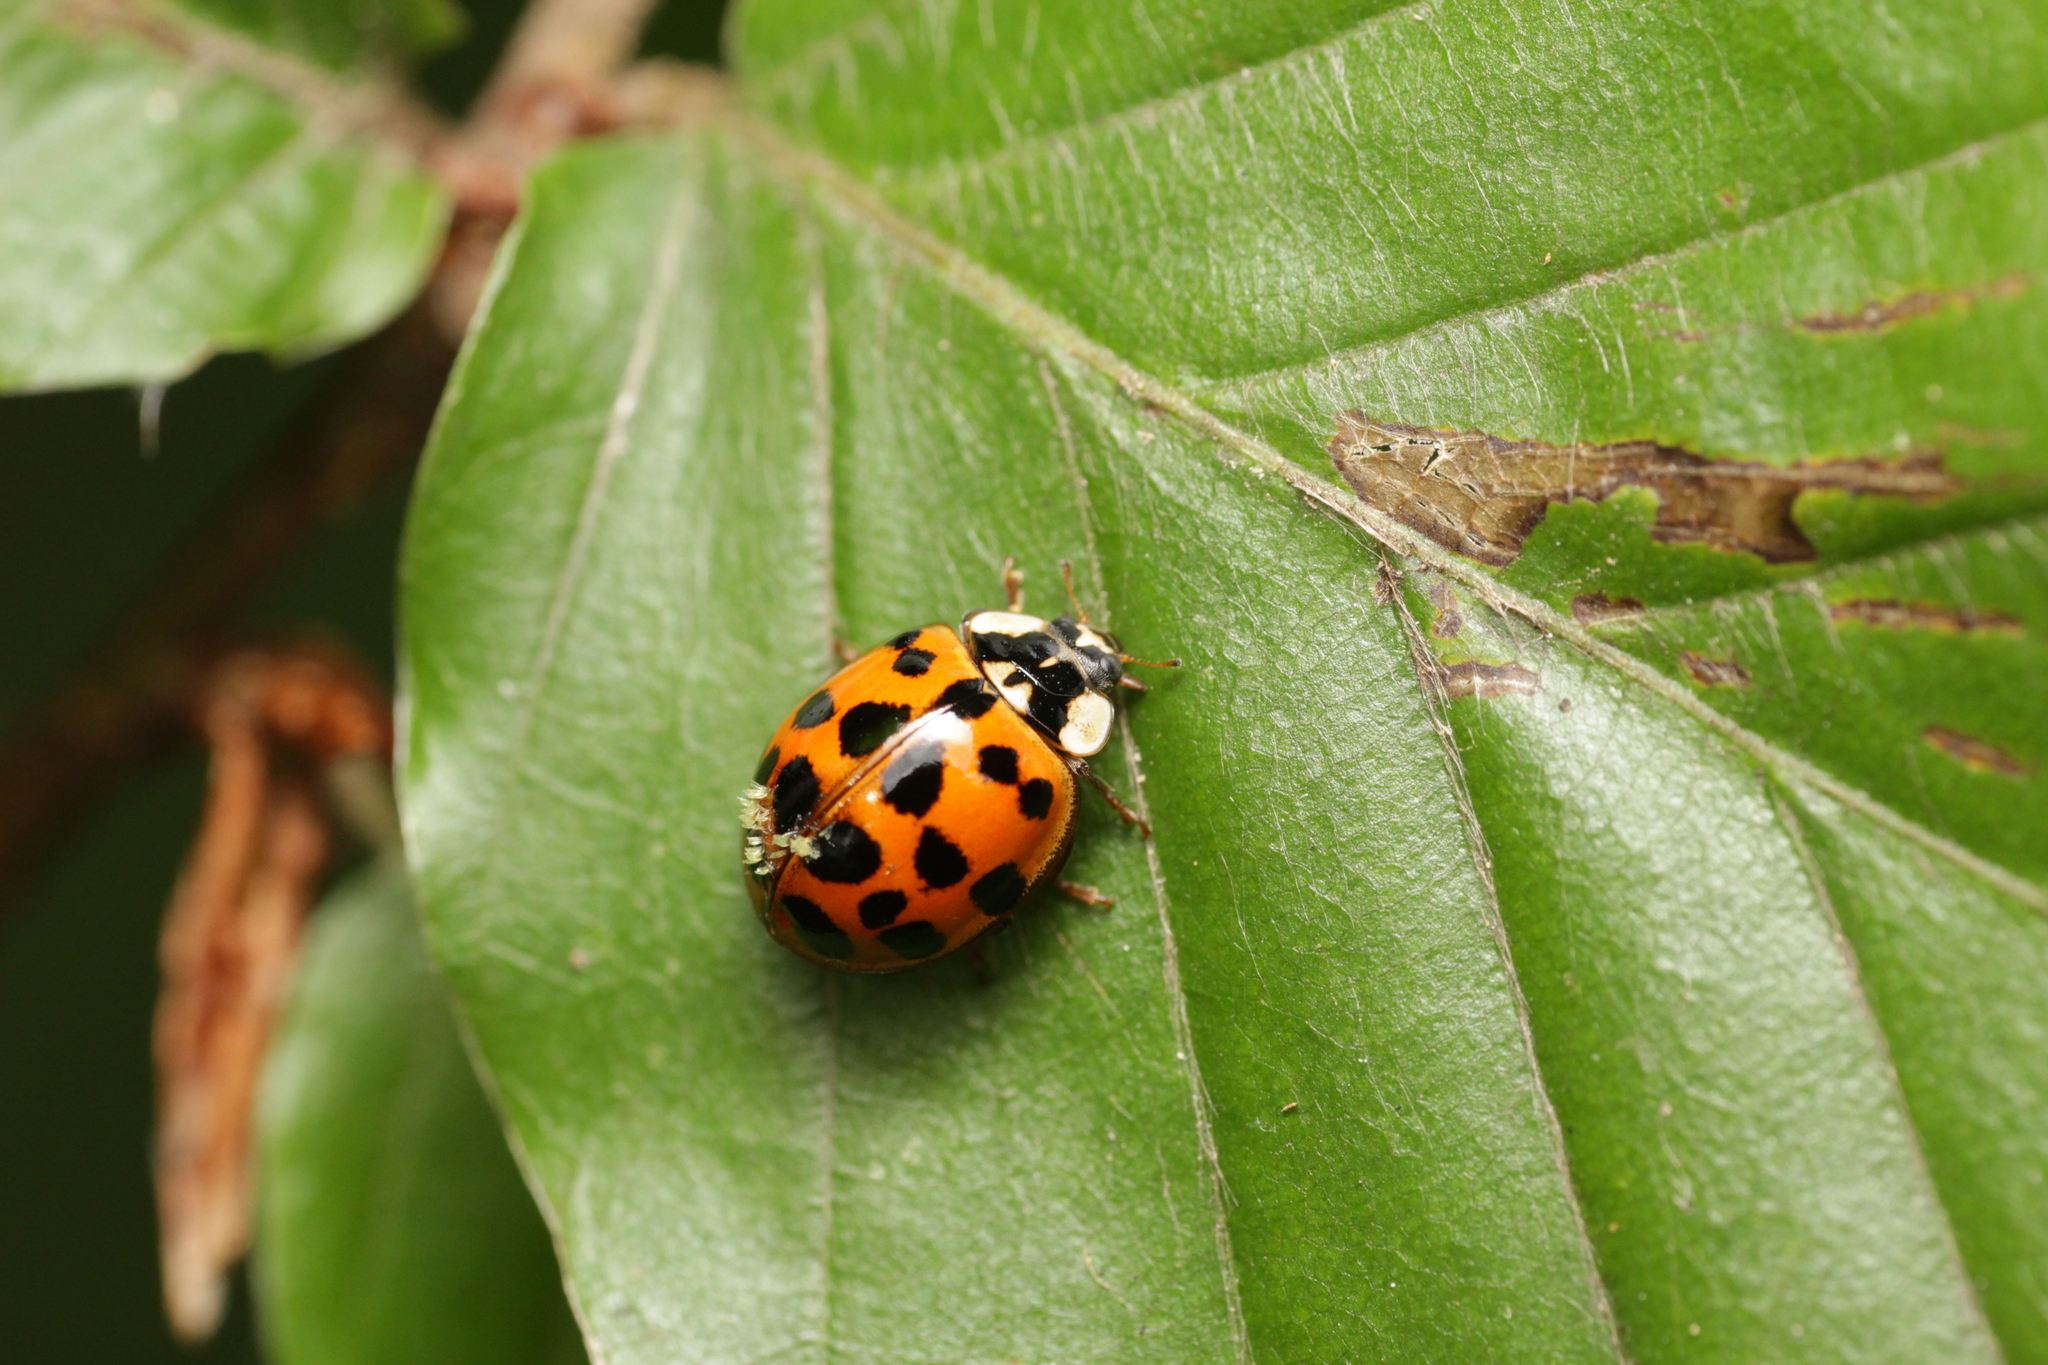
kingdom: Animalia
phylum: Arthropoda
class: Insecta
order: Coleoptera
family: Coccinellidae
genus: Harmonia
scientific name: Harmonia axyridis
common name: Harlequin ladybird
